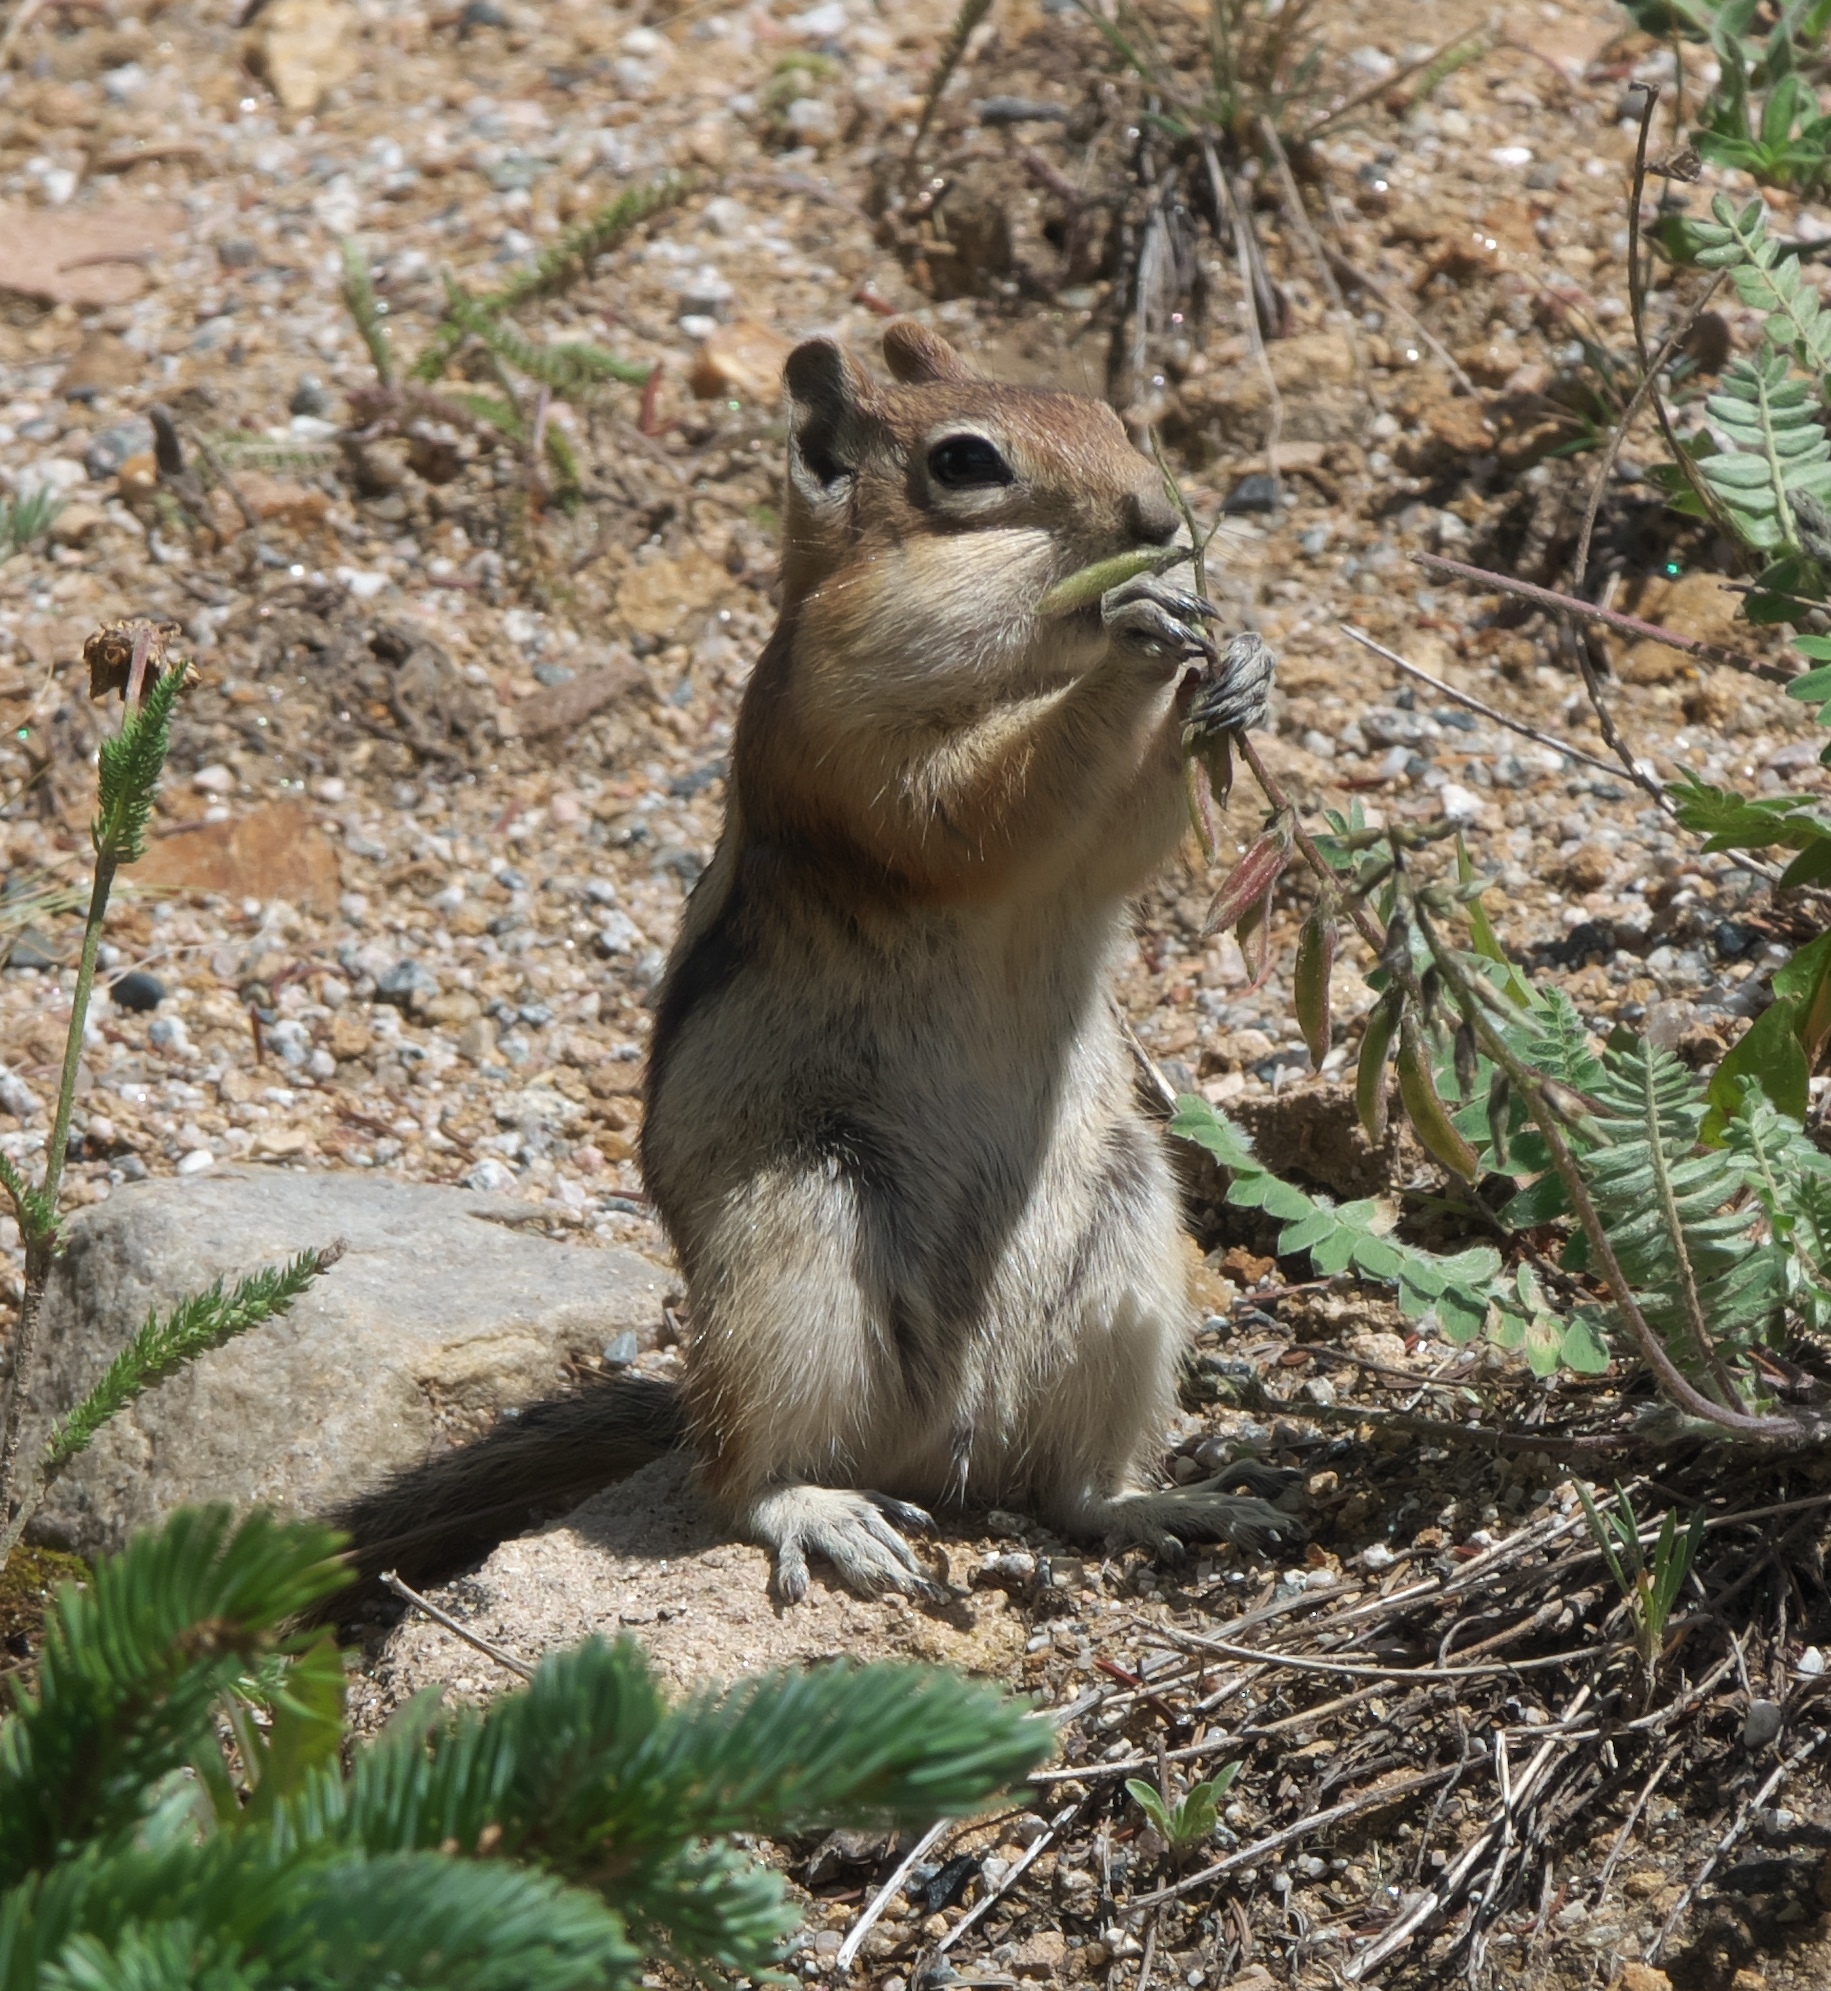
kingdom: Animalia
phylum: Chordata
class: Mammalia
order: Rodentia
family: Sciuridae
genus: Callospermophilus
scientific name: Callospermophilus lateralis
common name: Golden-mantled ground squirrel
